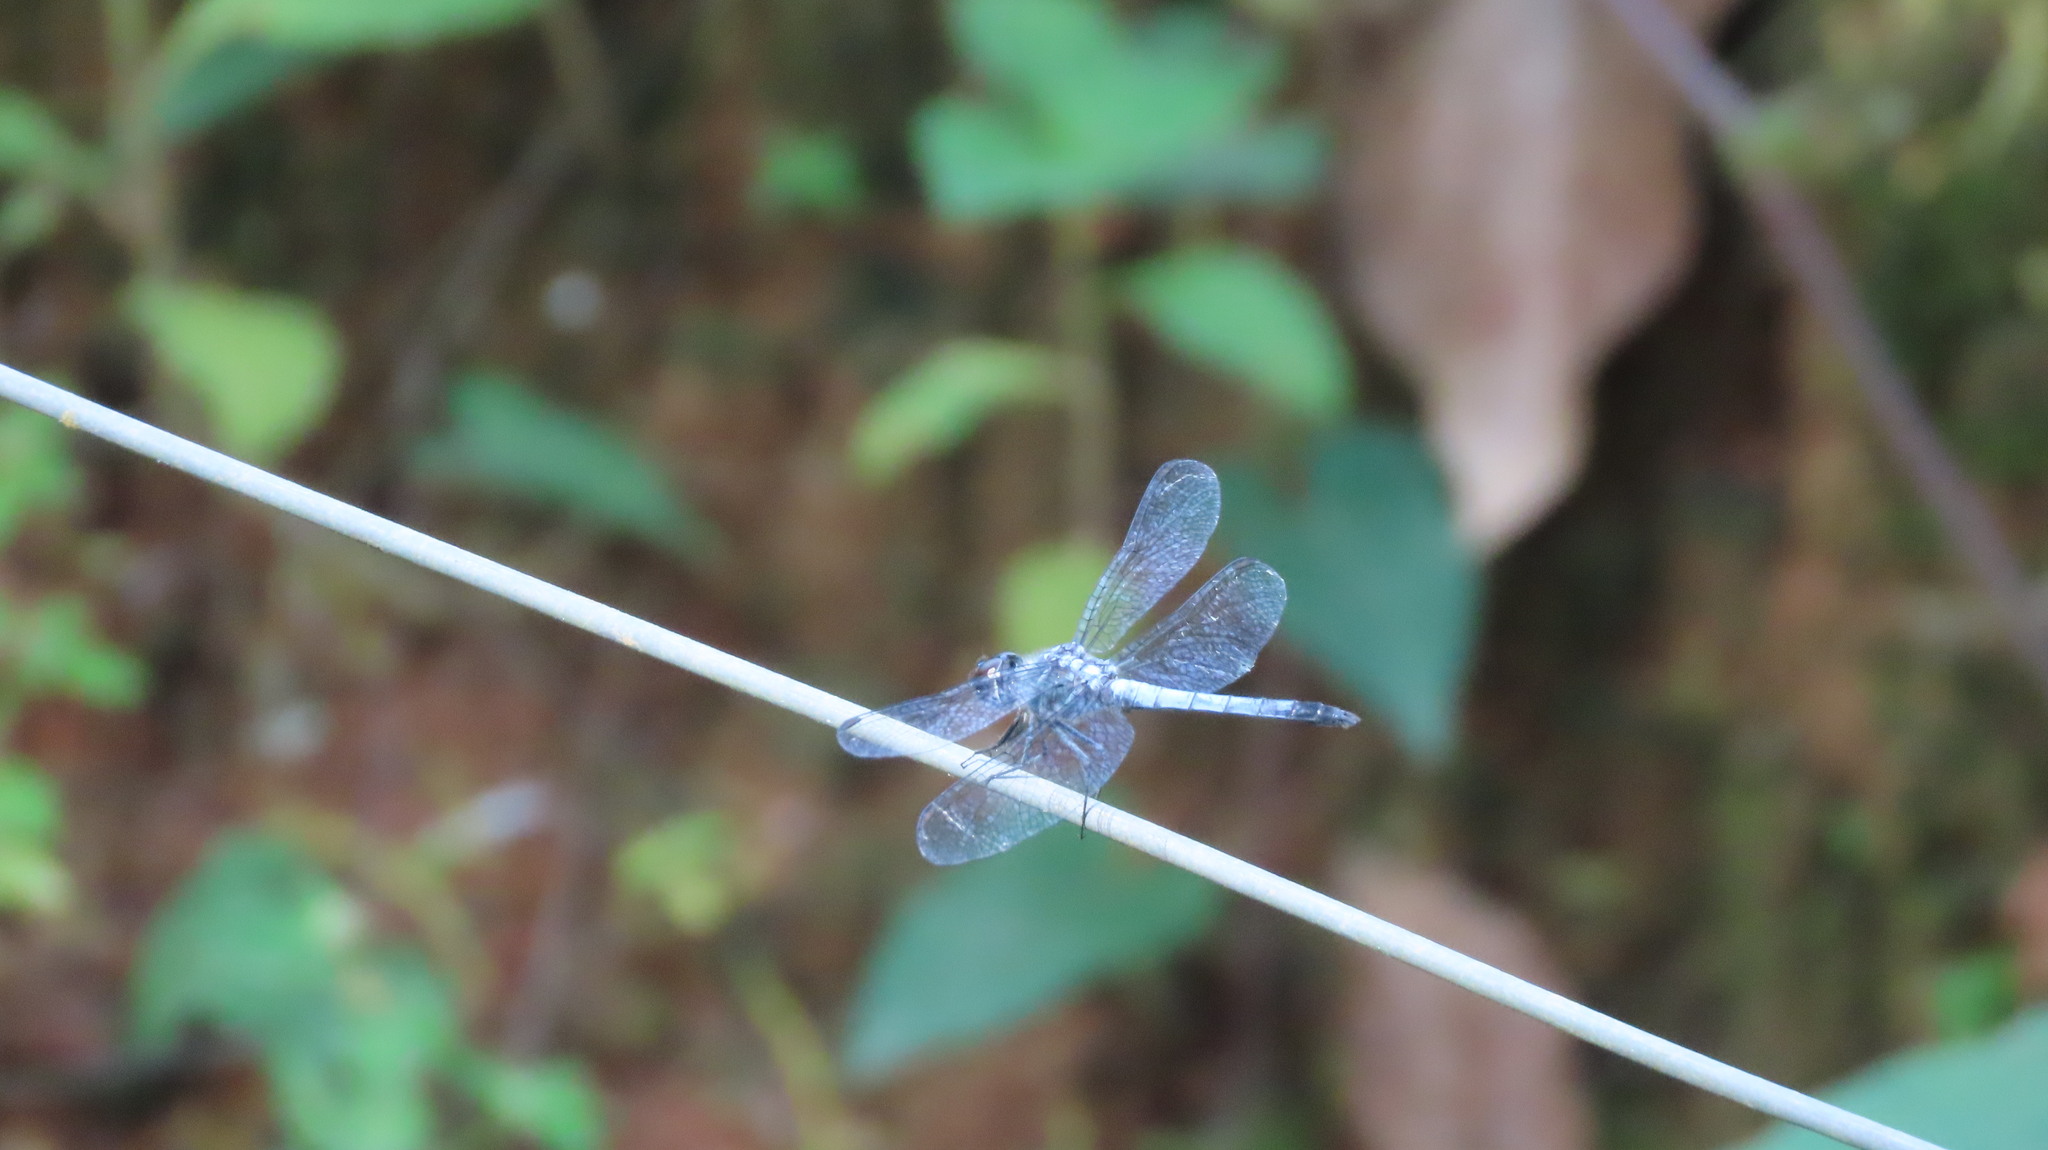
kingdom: Animalia
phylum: Arthropoda
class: Insecta
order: Odonata
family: Libellulidae
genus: Brachydiplax
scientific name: Brachydiplax chalybea
